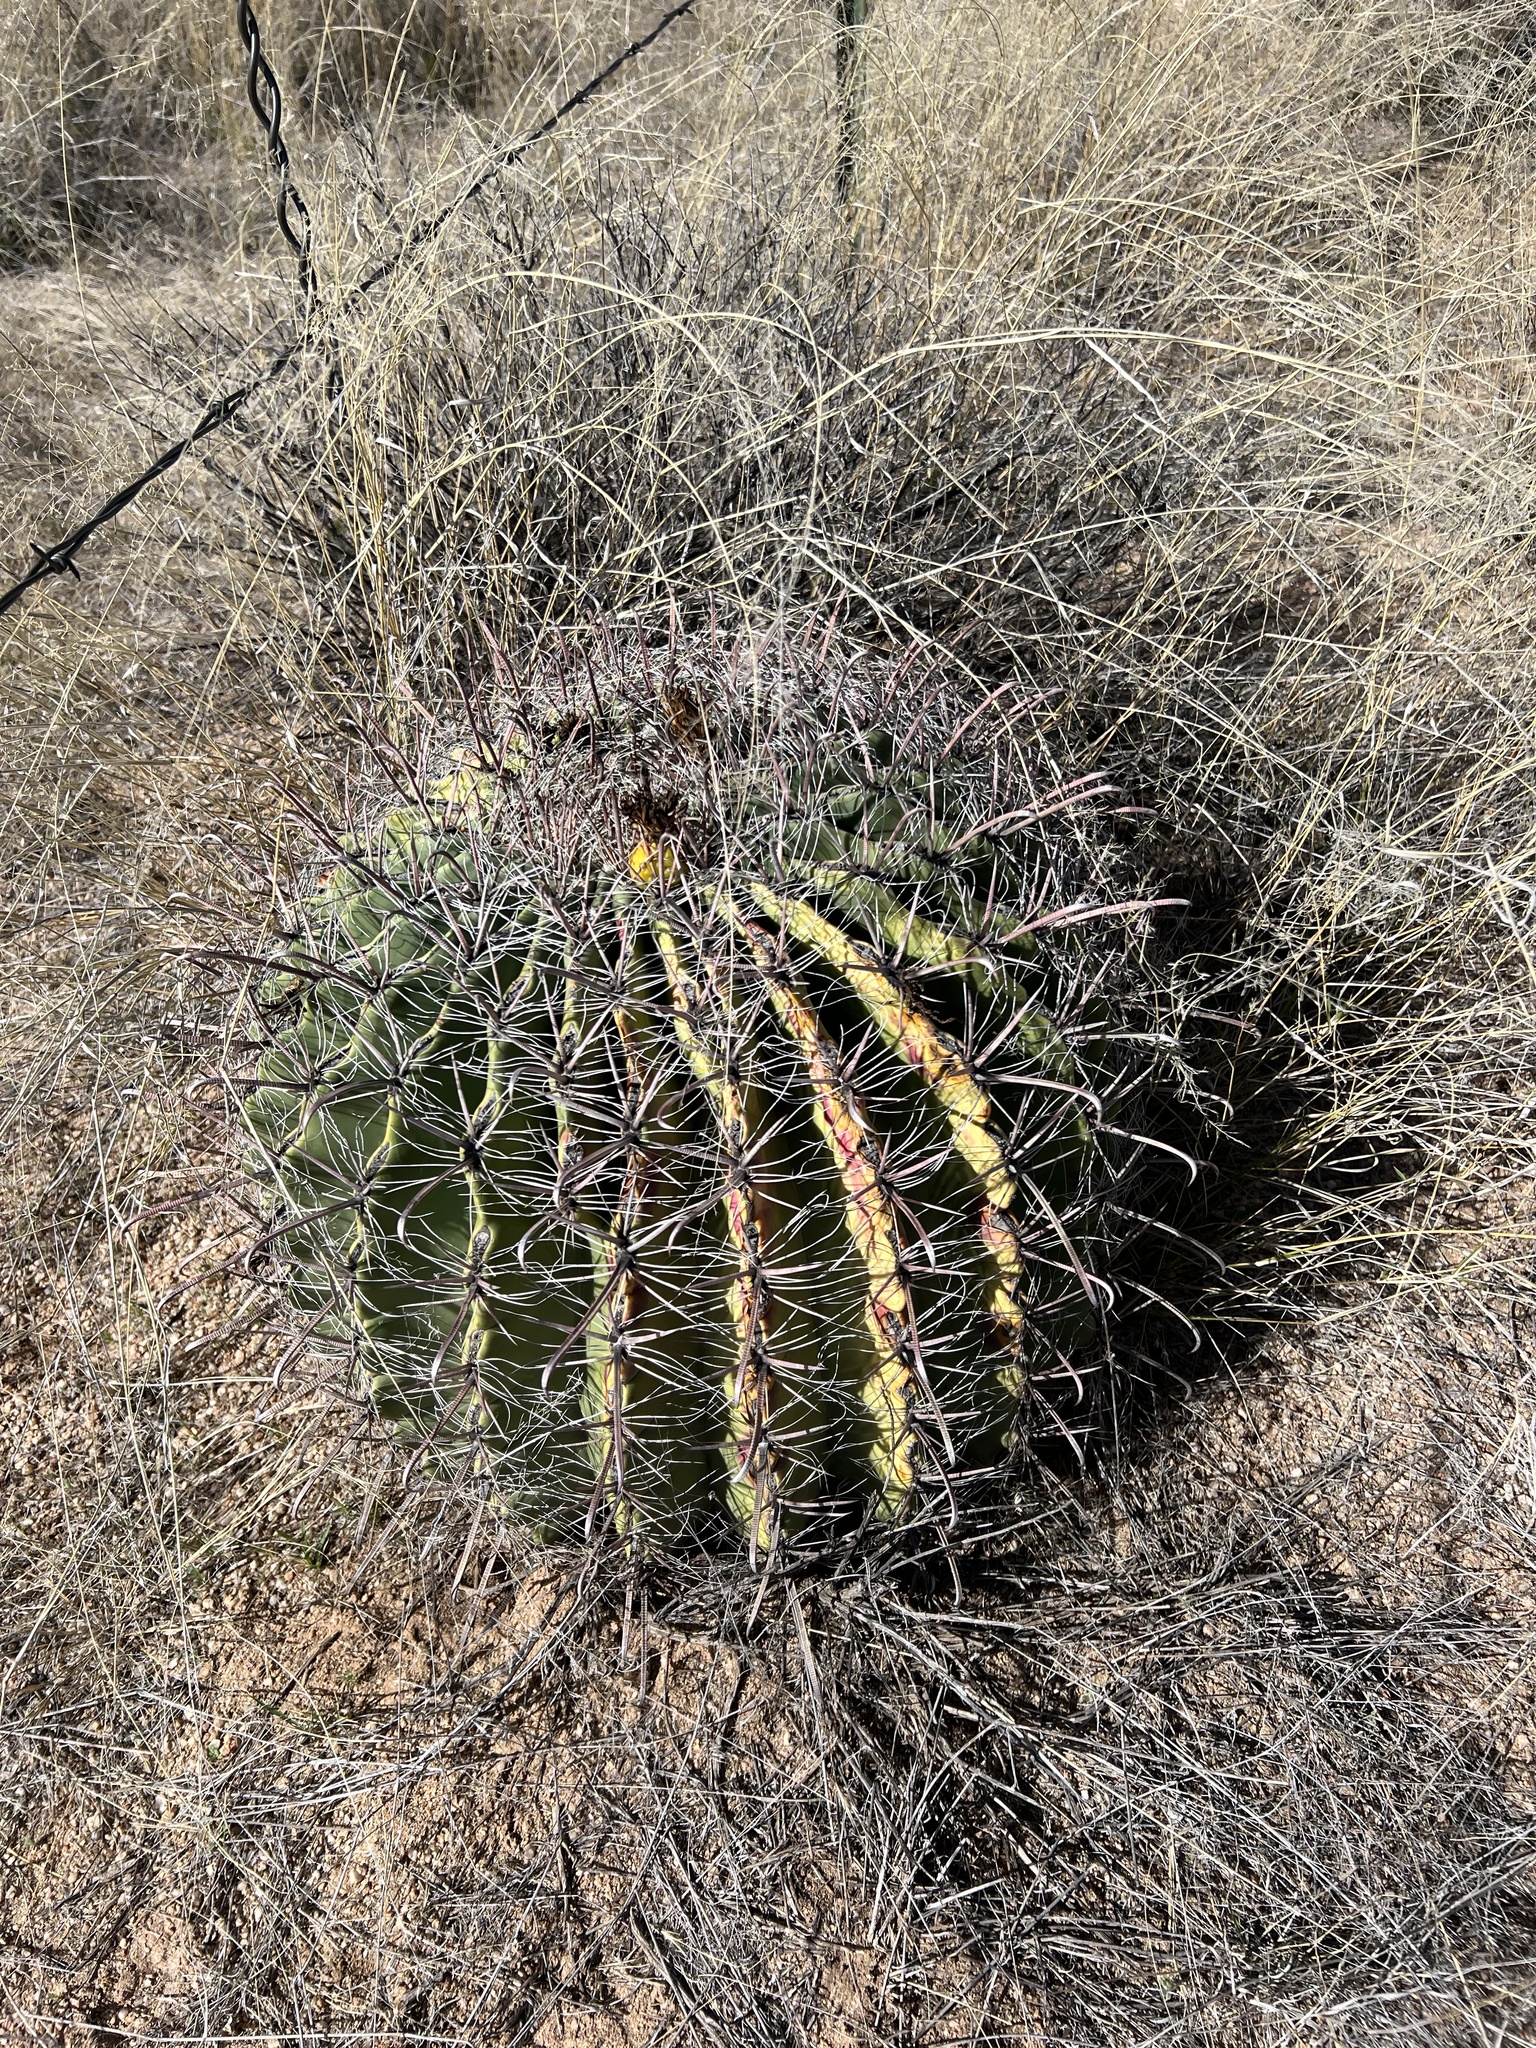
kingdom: Plantae
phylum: Tracheophyta
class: Magnoliopsida
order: Caryophyllales
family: Cactaceae
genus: Ferocactus
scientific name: Ferocactus wislizeni
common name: Candy barrel cactus
